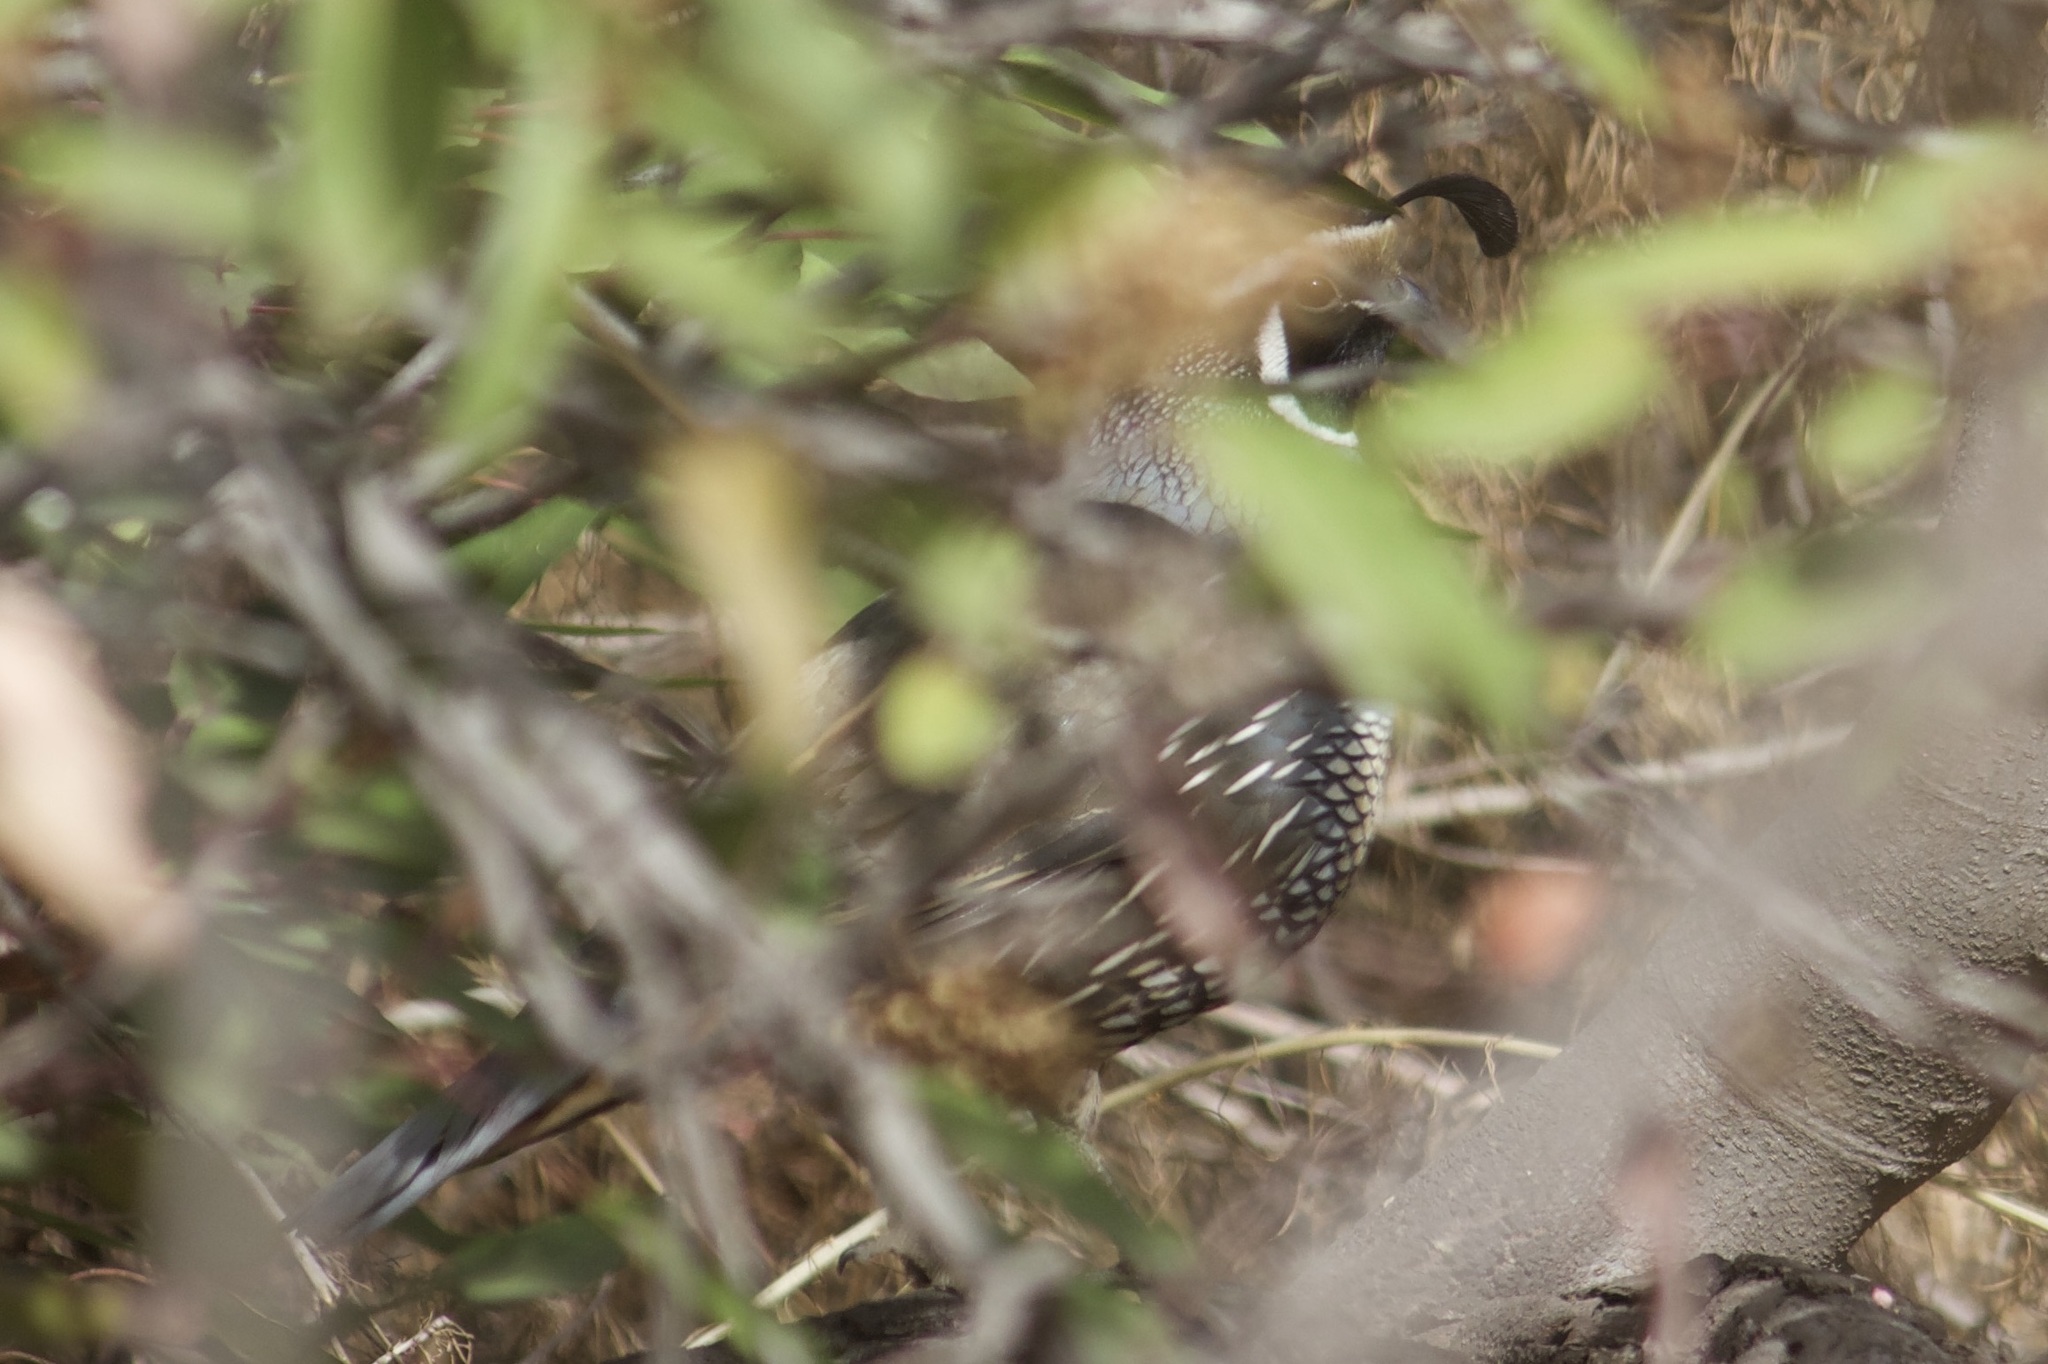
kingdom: Animalia
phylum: Chordata
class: Aves
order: Galliformes
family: Odontophoridae
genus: Callipepla
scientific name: Callipepla californica
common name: California quail
